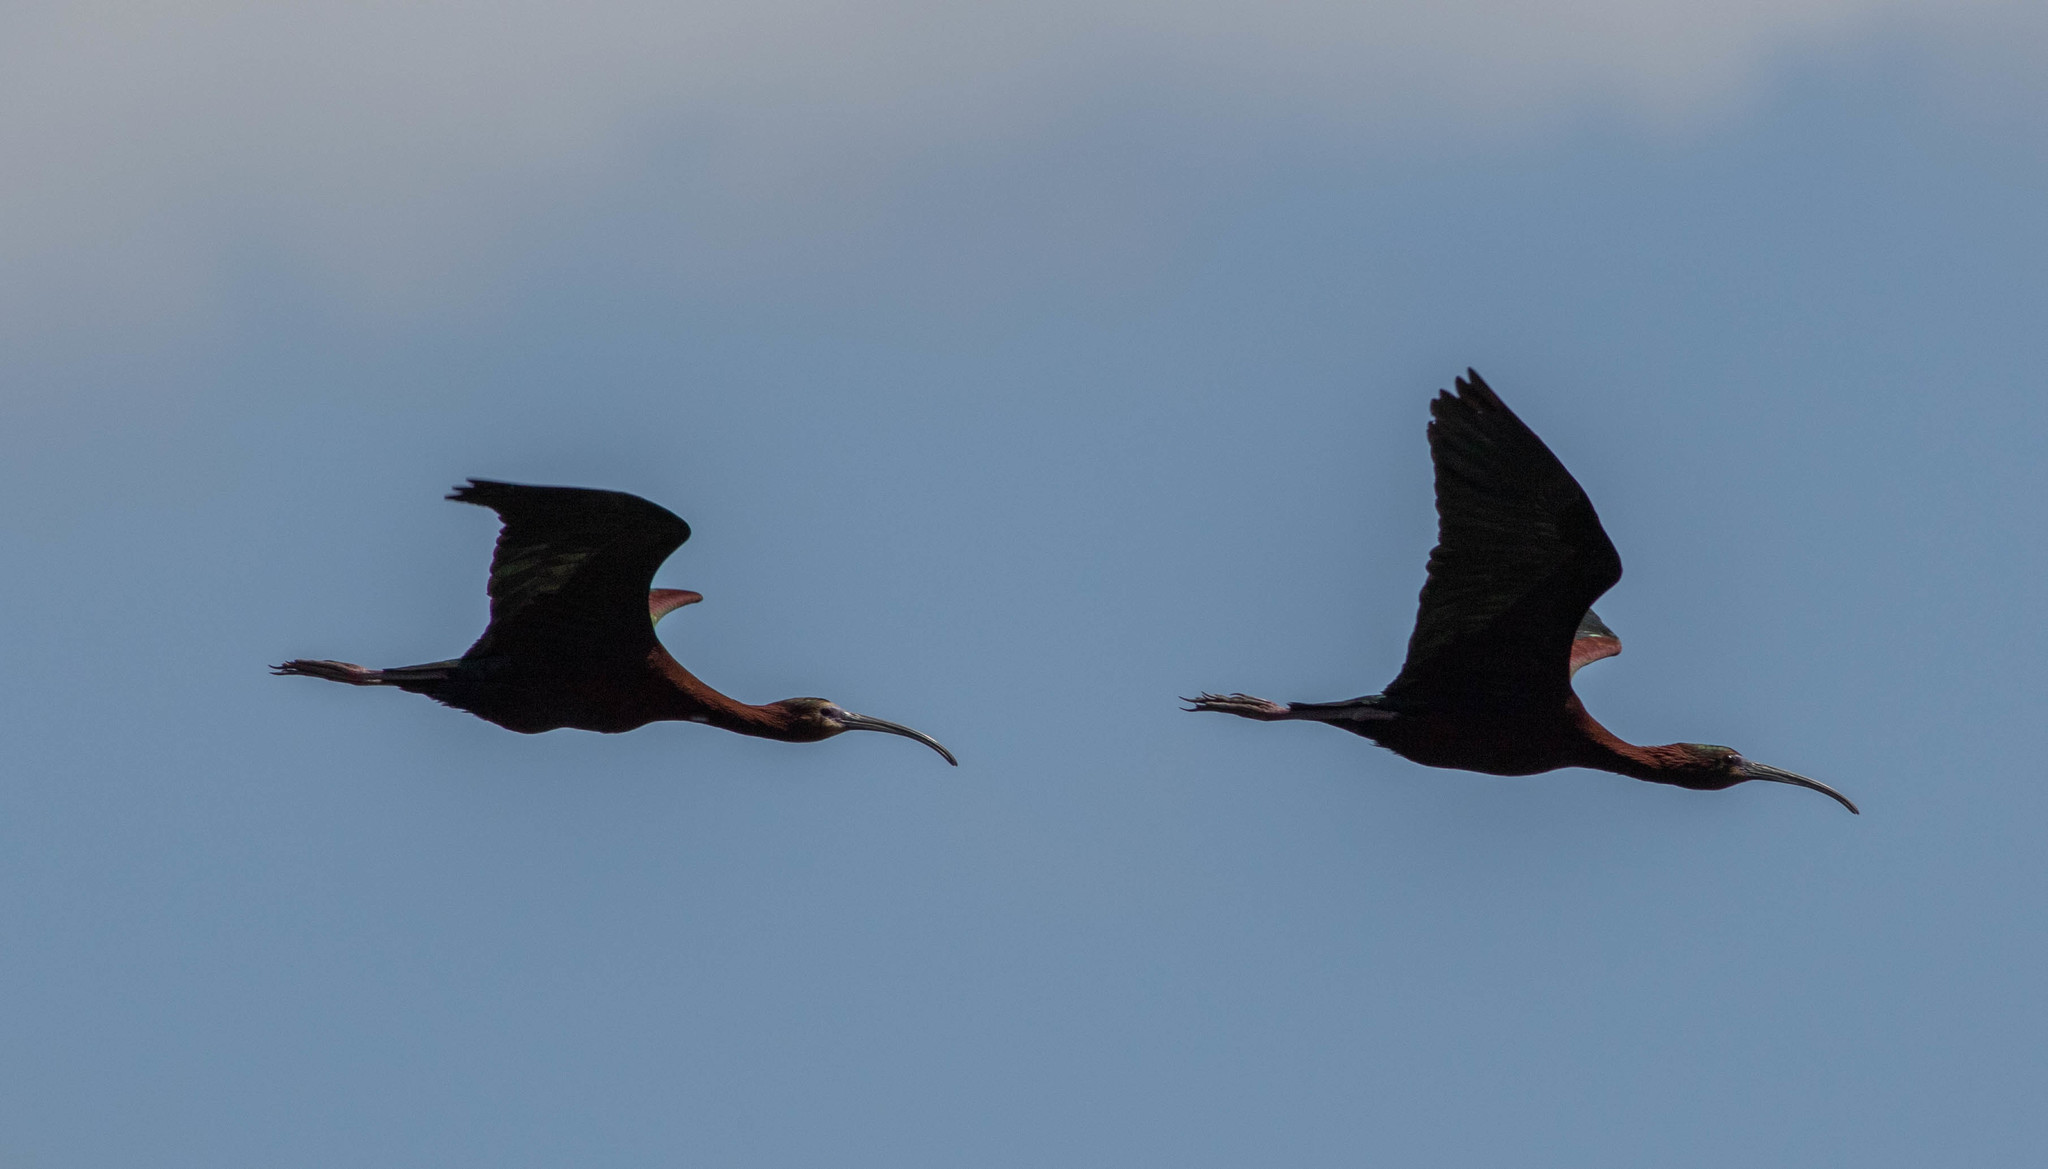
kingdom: Animalia
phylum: Chordata
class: Aves
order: Pelecaniformes
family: Threskiornithidae
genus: Plegadis
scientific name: Plegadis chihi
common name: White-faced ibis
